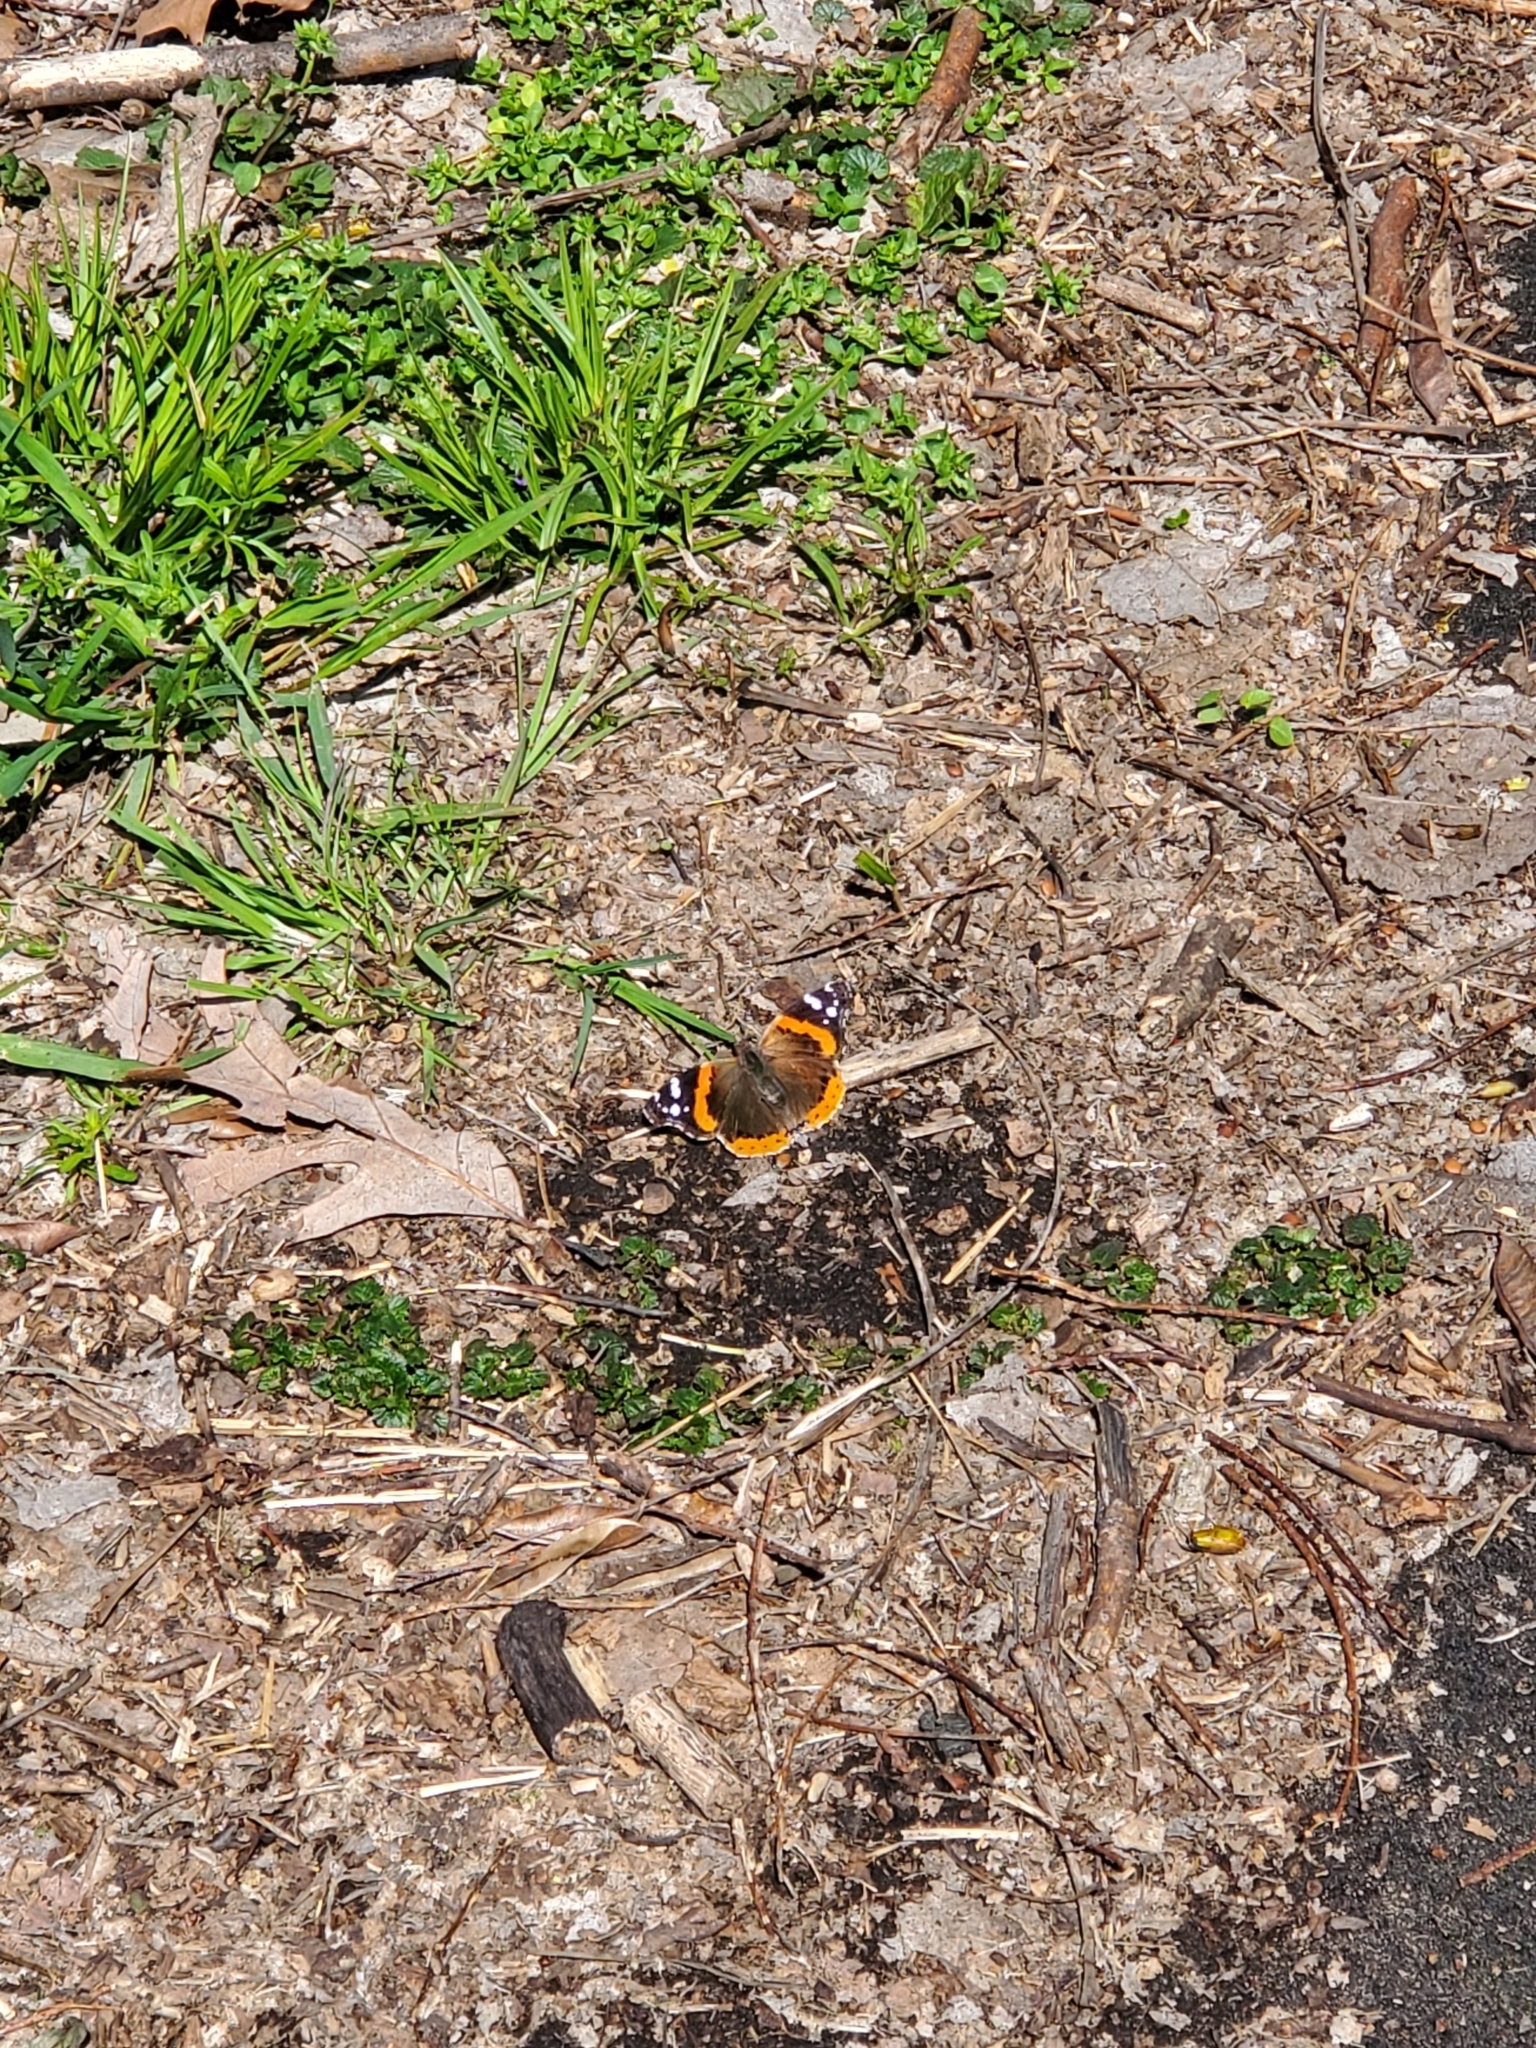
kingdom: Animalia
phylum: Arthropoda
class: Insecta
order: Lepidoptera
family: Nymphalidae
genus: Vanessa
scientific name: Vanessa atalanta
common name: Red admiral
